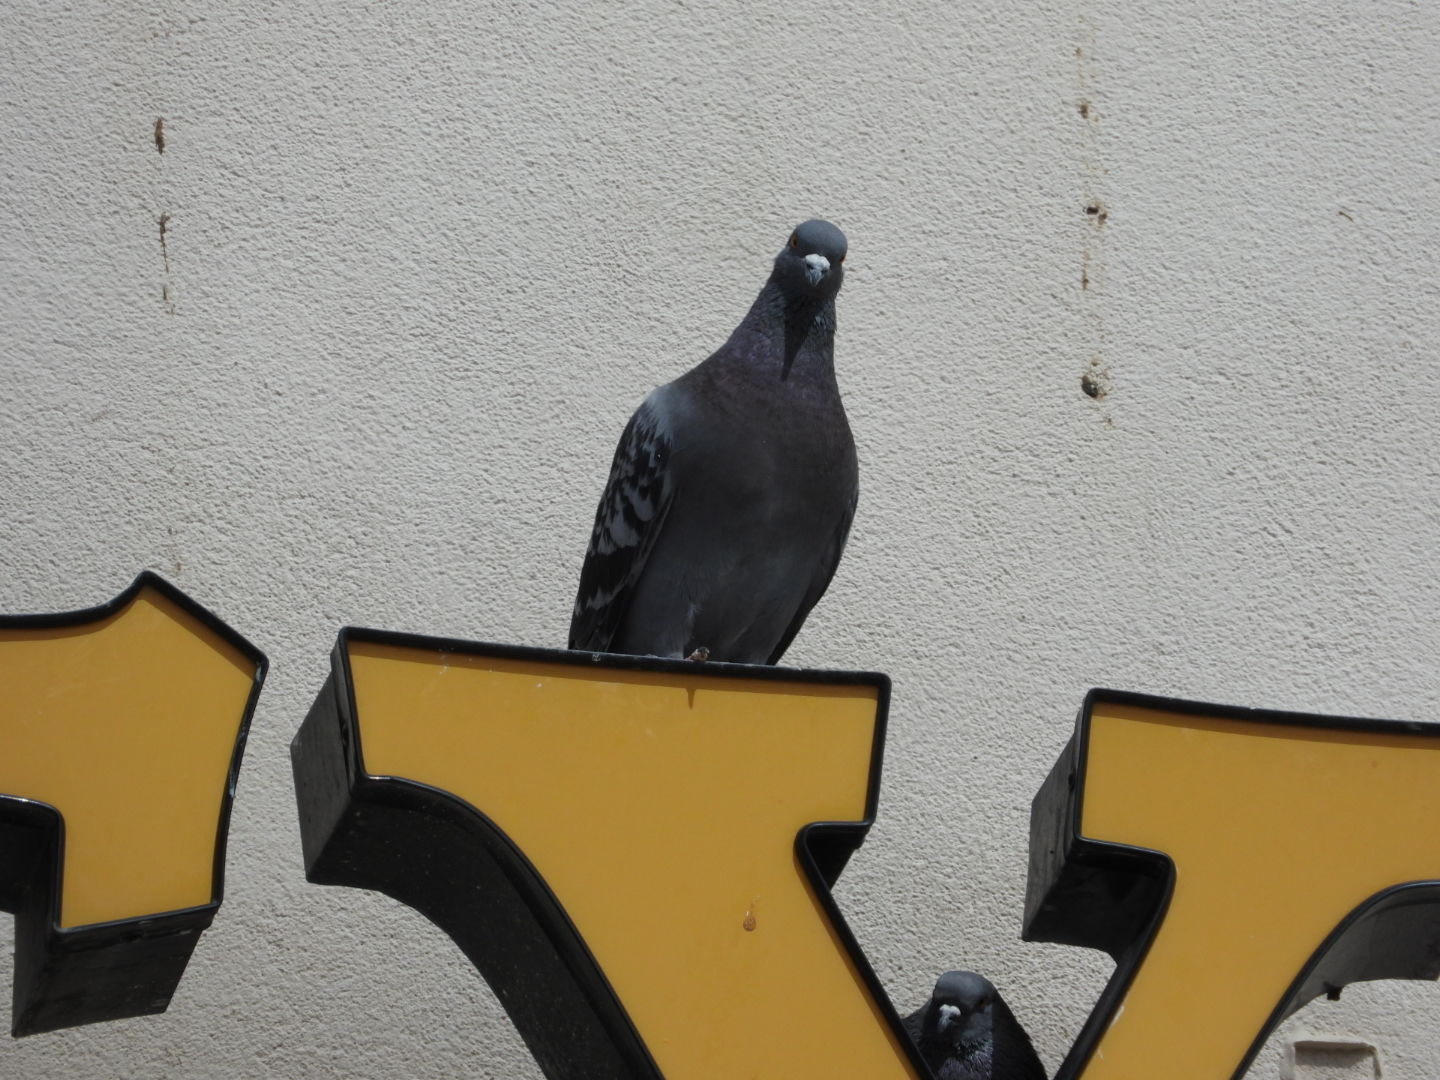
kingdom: Animalia
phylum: Chordata
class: Aves
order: Columbiformes
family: Columbidae
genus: Columba
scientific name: Columba livia
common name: Rock pigeon
